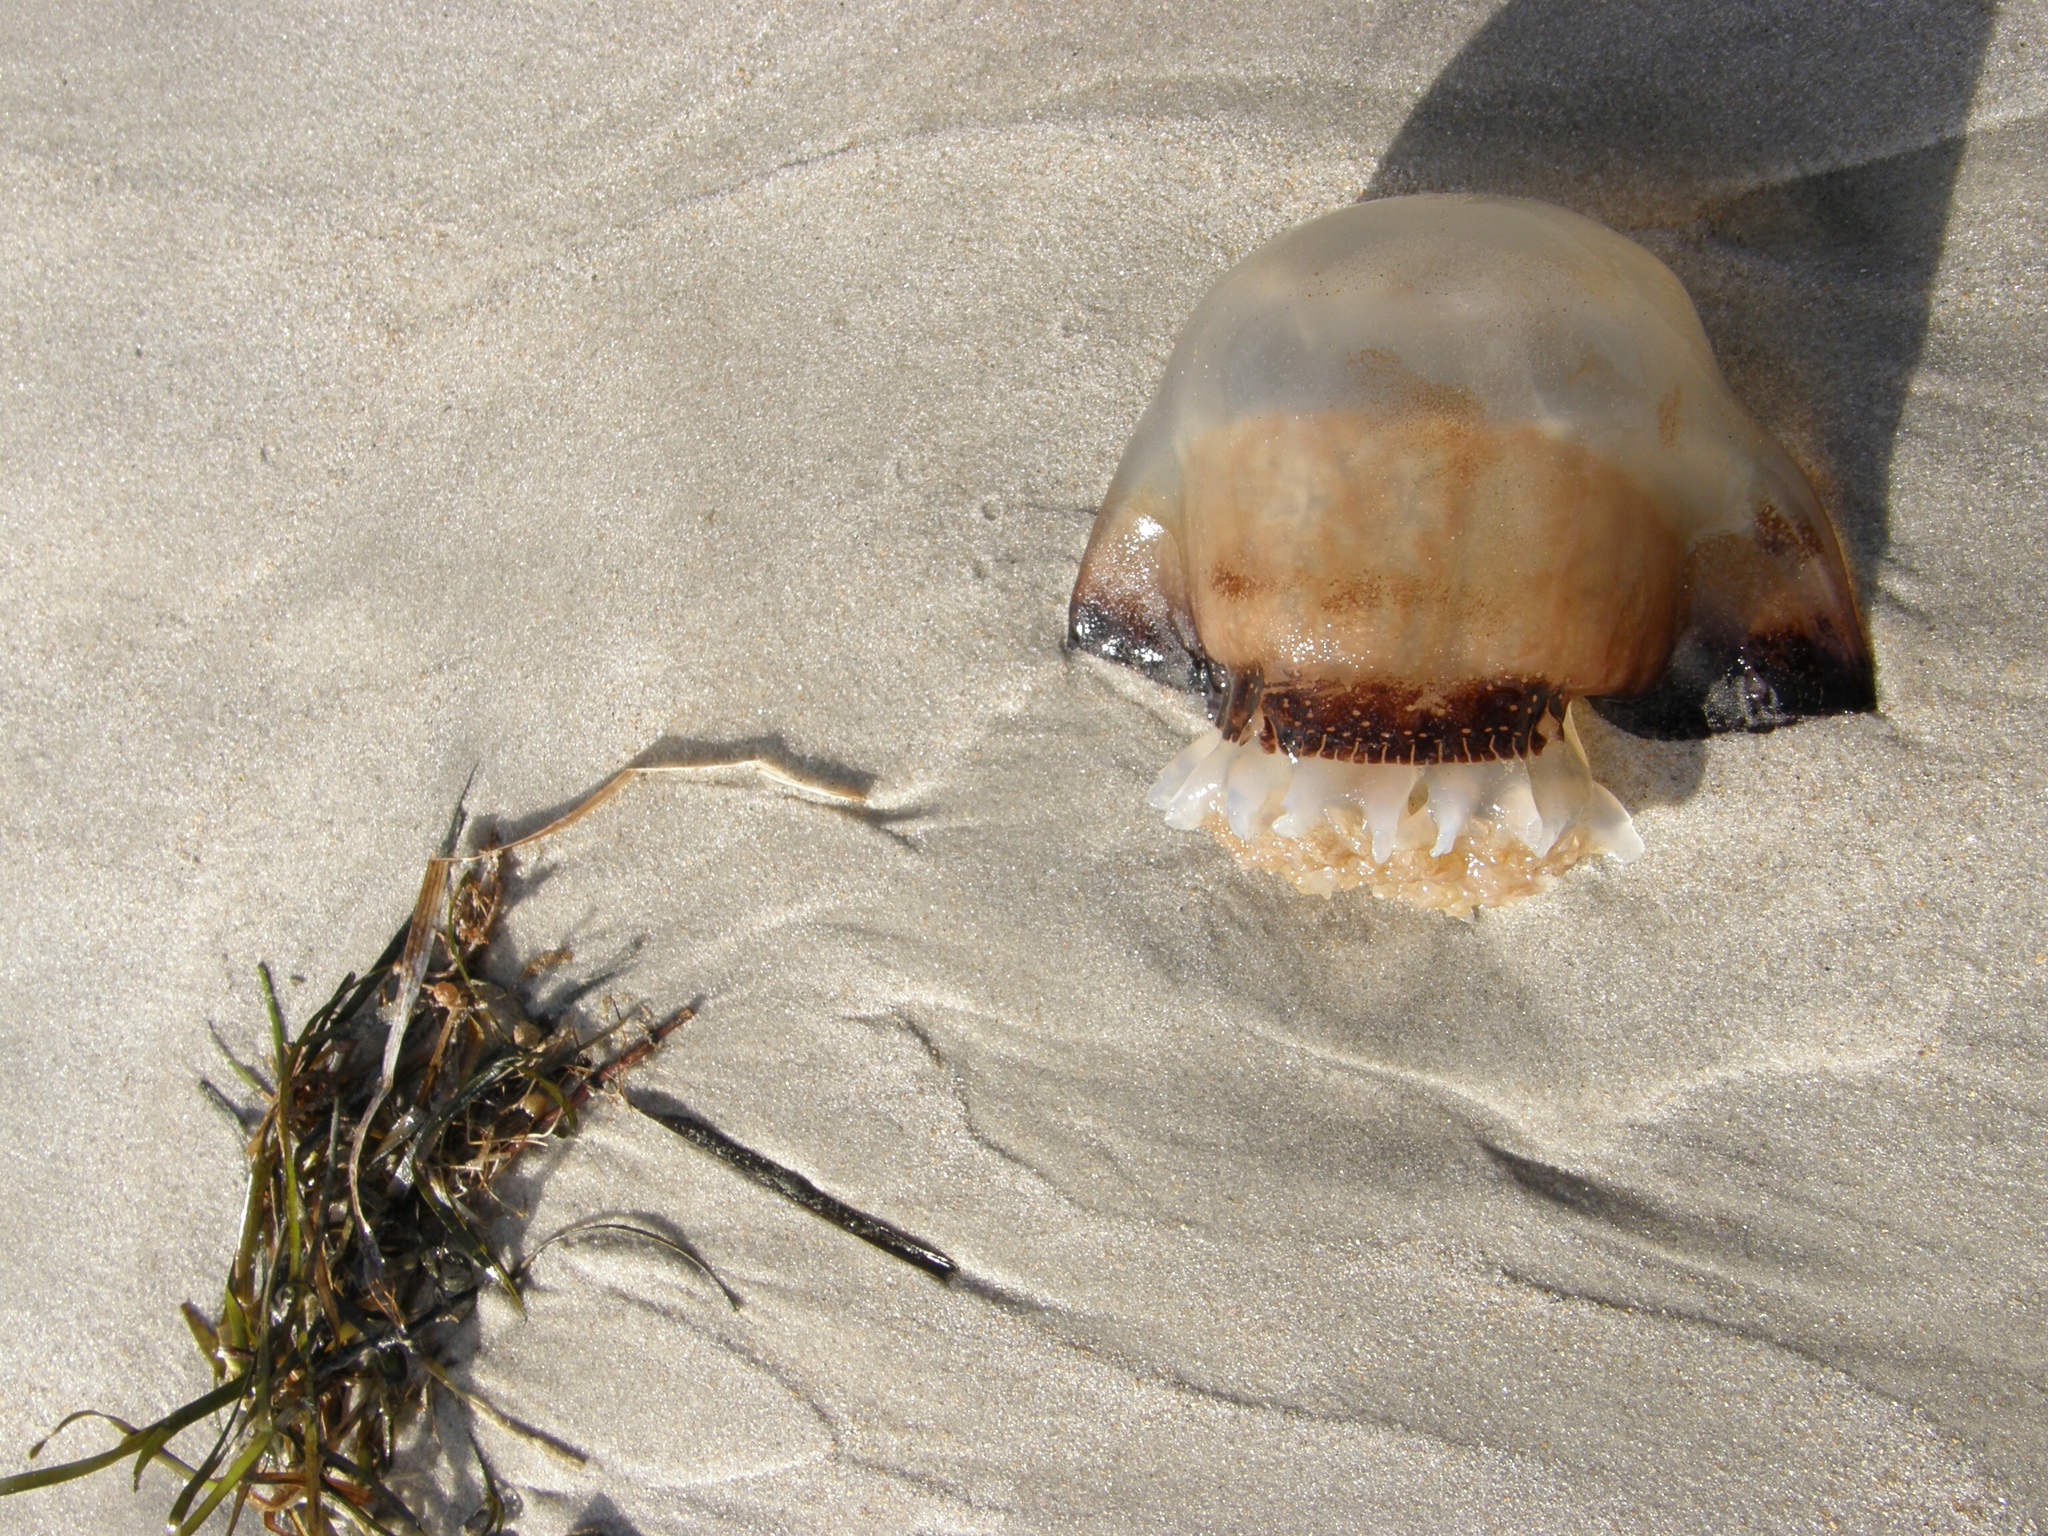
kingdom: Animalia
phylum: Cnidaria
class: Scyphozoa
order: Rhizostomeae
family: Stomolophidae
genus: Stomolophus
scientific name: Stomolophus meleagris
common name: Cabbagehead
